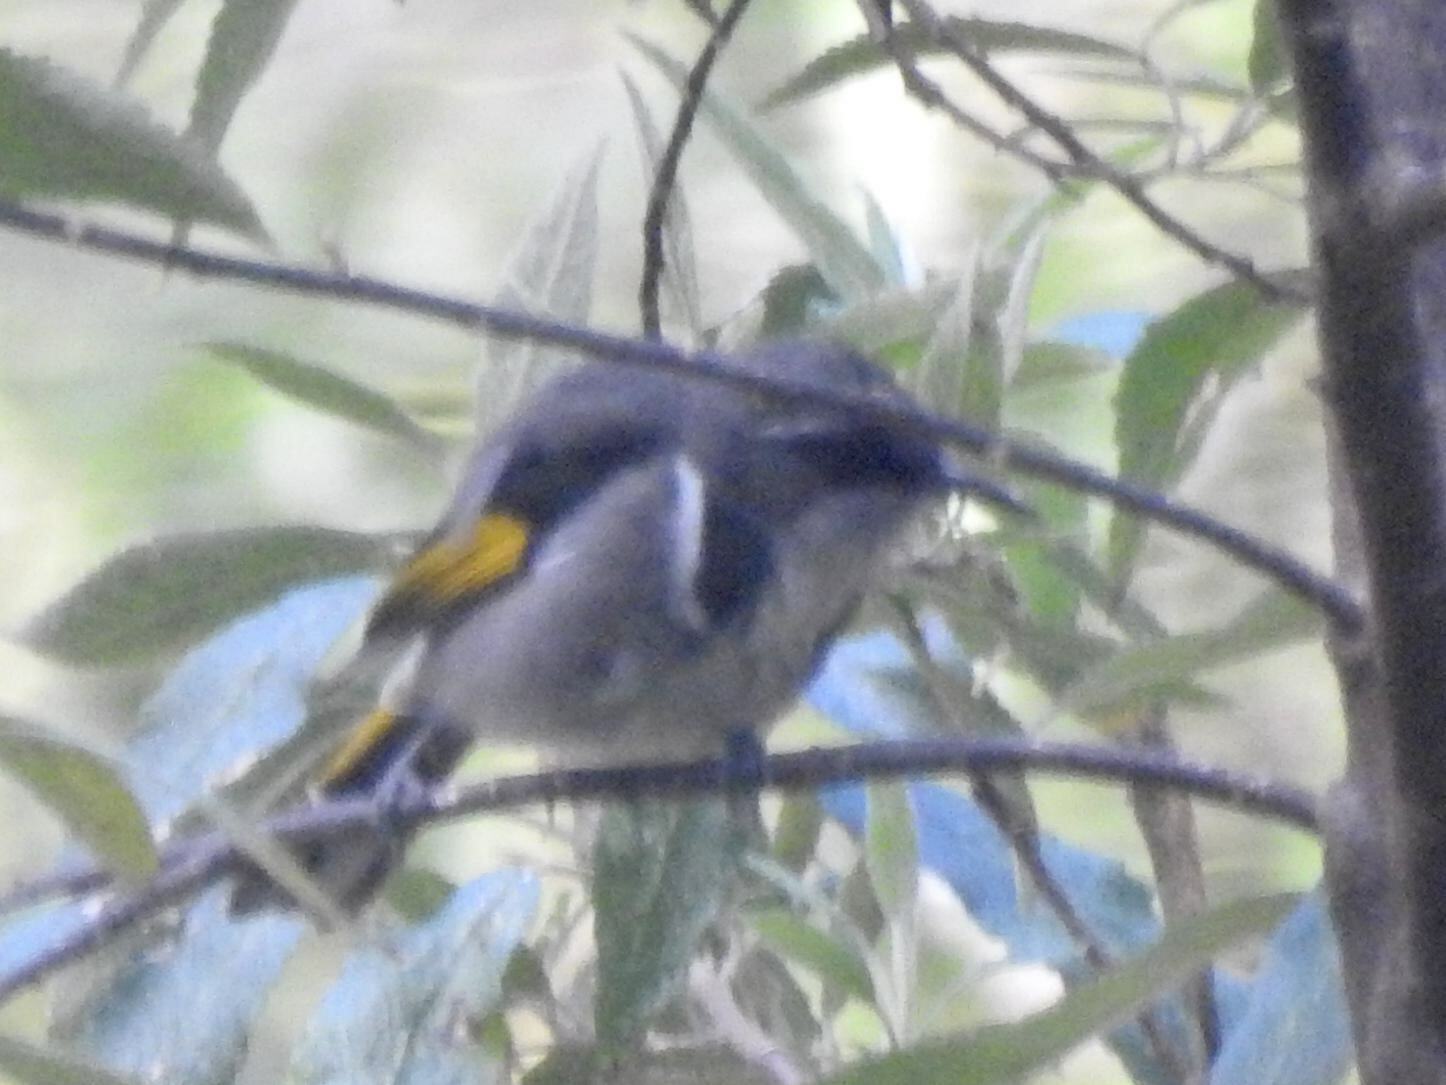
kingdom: Animalia
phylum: Chordata
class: Aves
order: Passeriformes
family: Meliphagidae
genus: Phylidonyris
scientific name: Phylidonyris pyrrhopterus
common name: Crescent honeyeater
